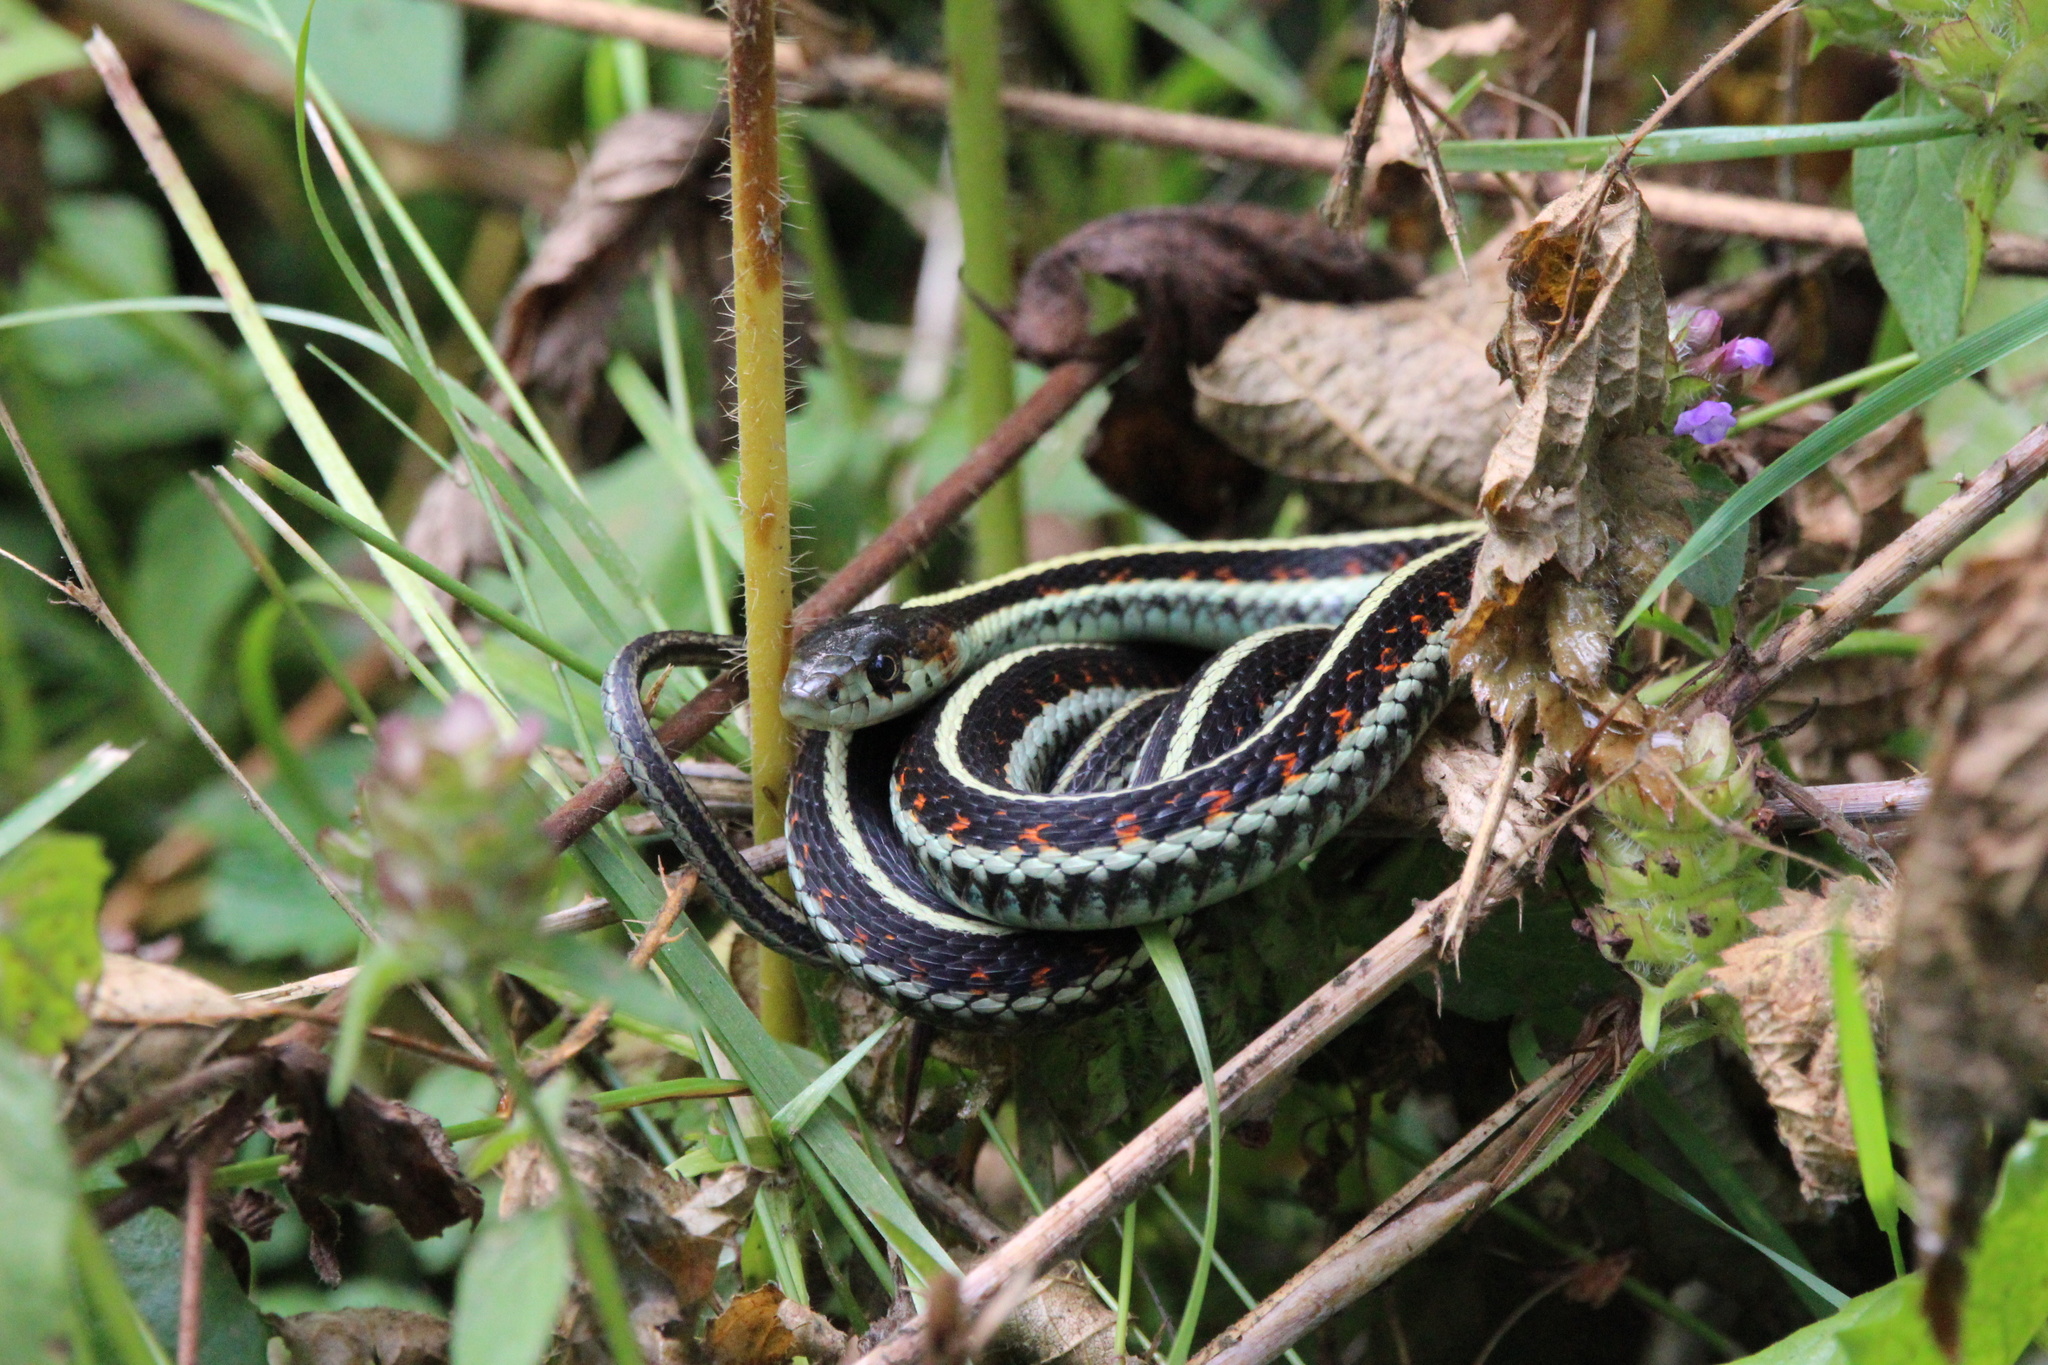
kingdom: Animalia
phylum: Chordata
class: Squamata
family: Colubridae
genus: Thamnophis
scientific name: Thamnophis sirtalis
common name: Common garter snake
